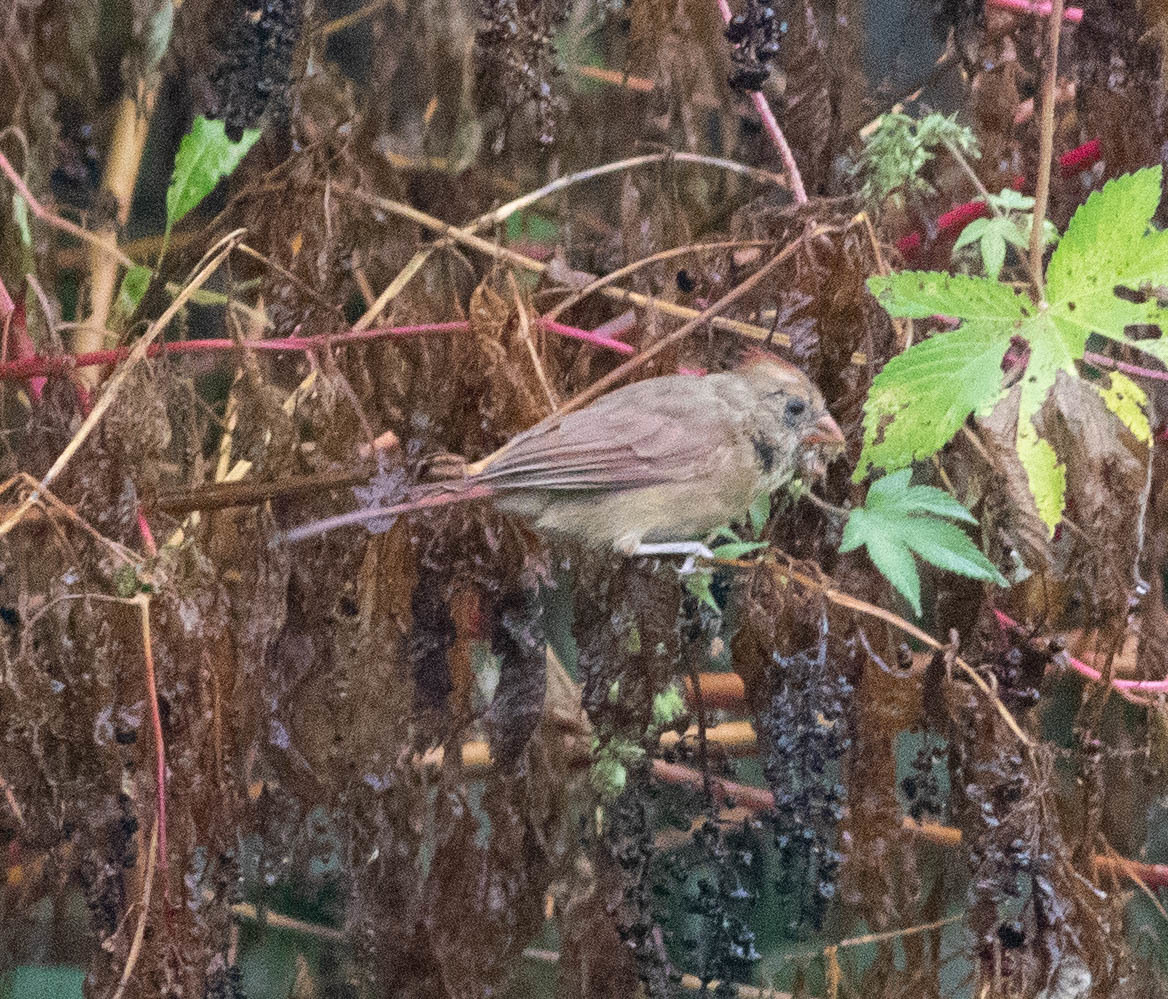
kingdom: Animalia
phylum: Chordata
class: Aves
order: Passeriformes
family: Cardinalidae
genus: Cardinalis
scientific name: Cardinalis cardinalis
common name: Northern cardinal
